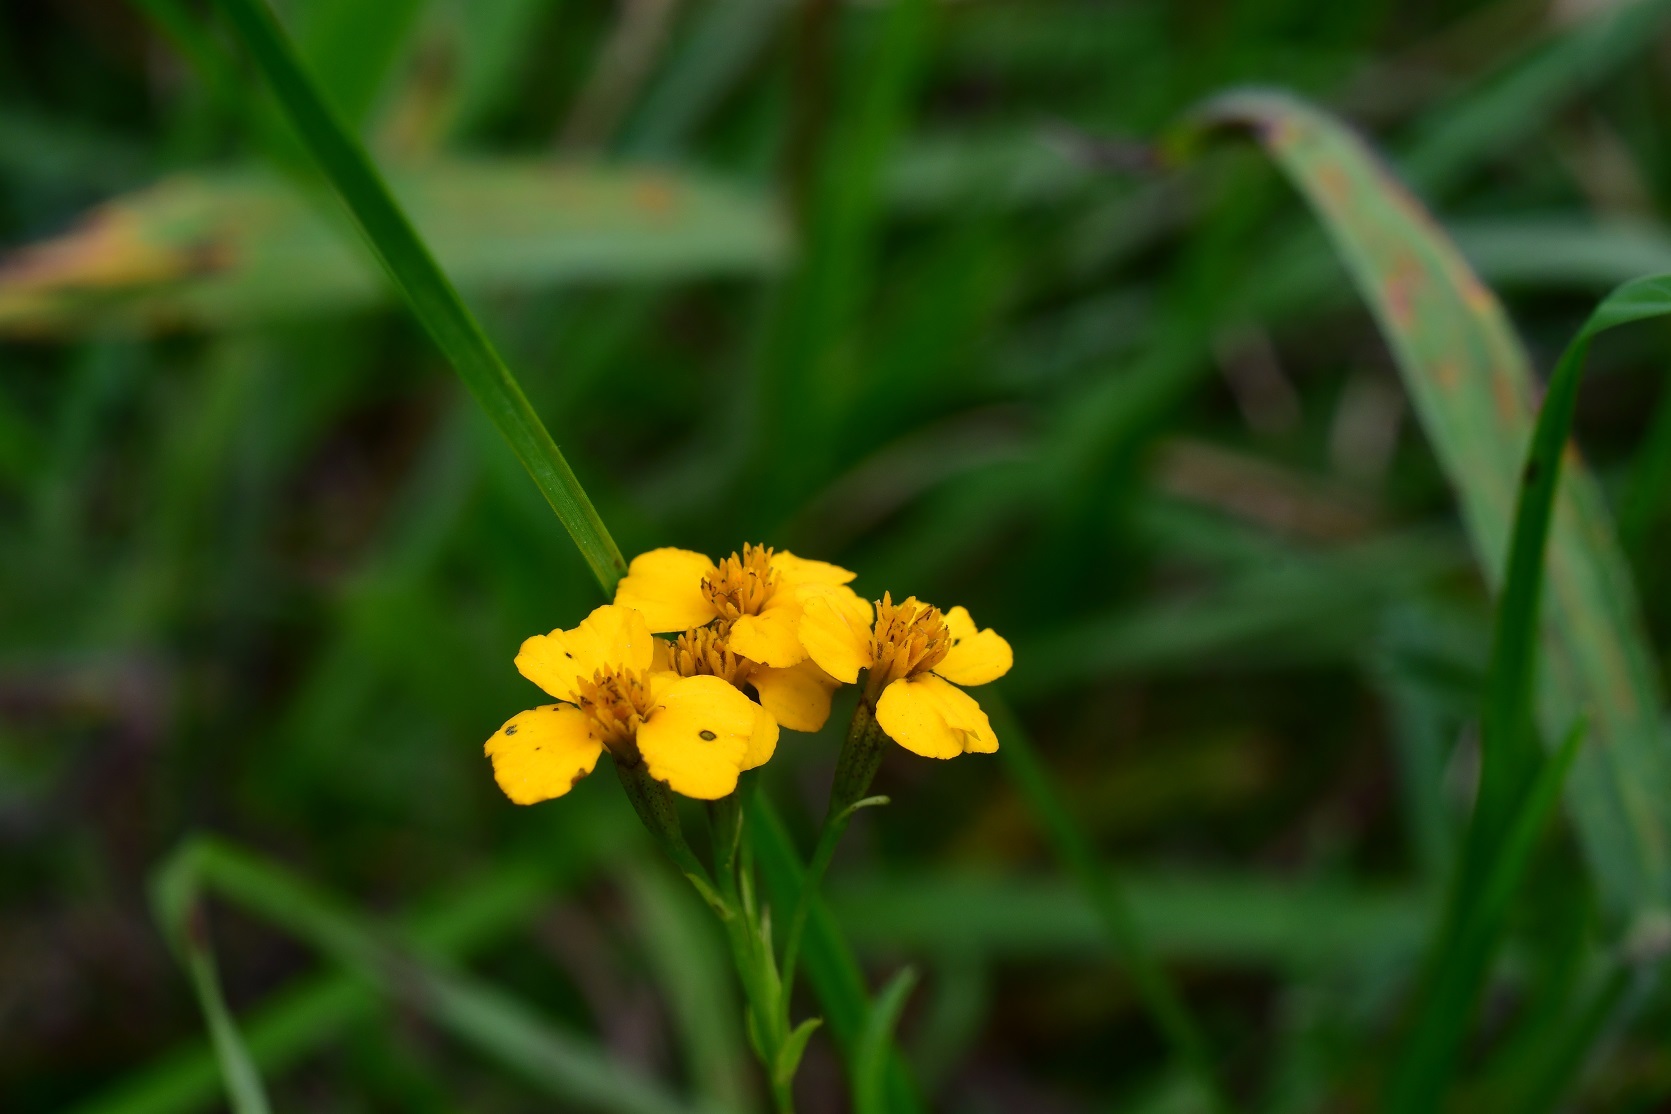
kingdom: Plantae
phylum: Tracheophyta
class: Magnoliopsida
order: Asterales
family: Asteraceae
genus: Tagetes
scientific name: Tagetes lucida
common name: Sweetscented marigold
